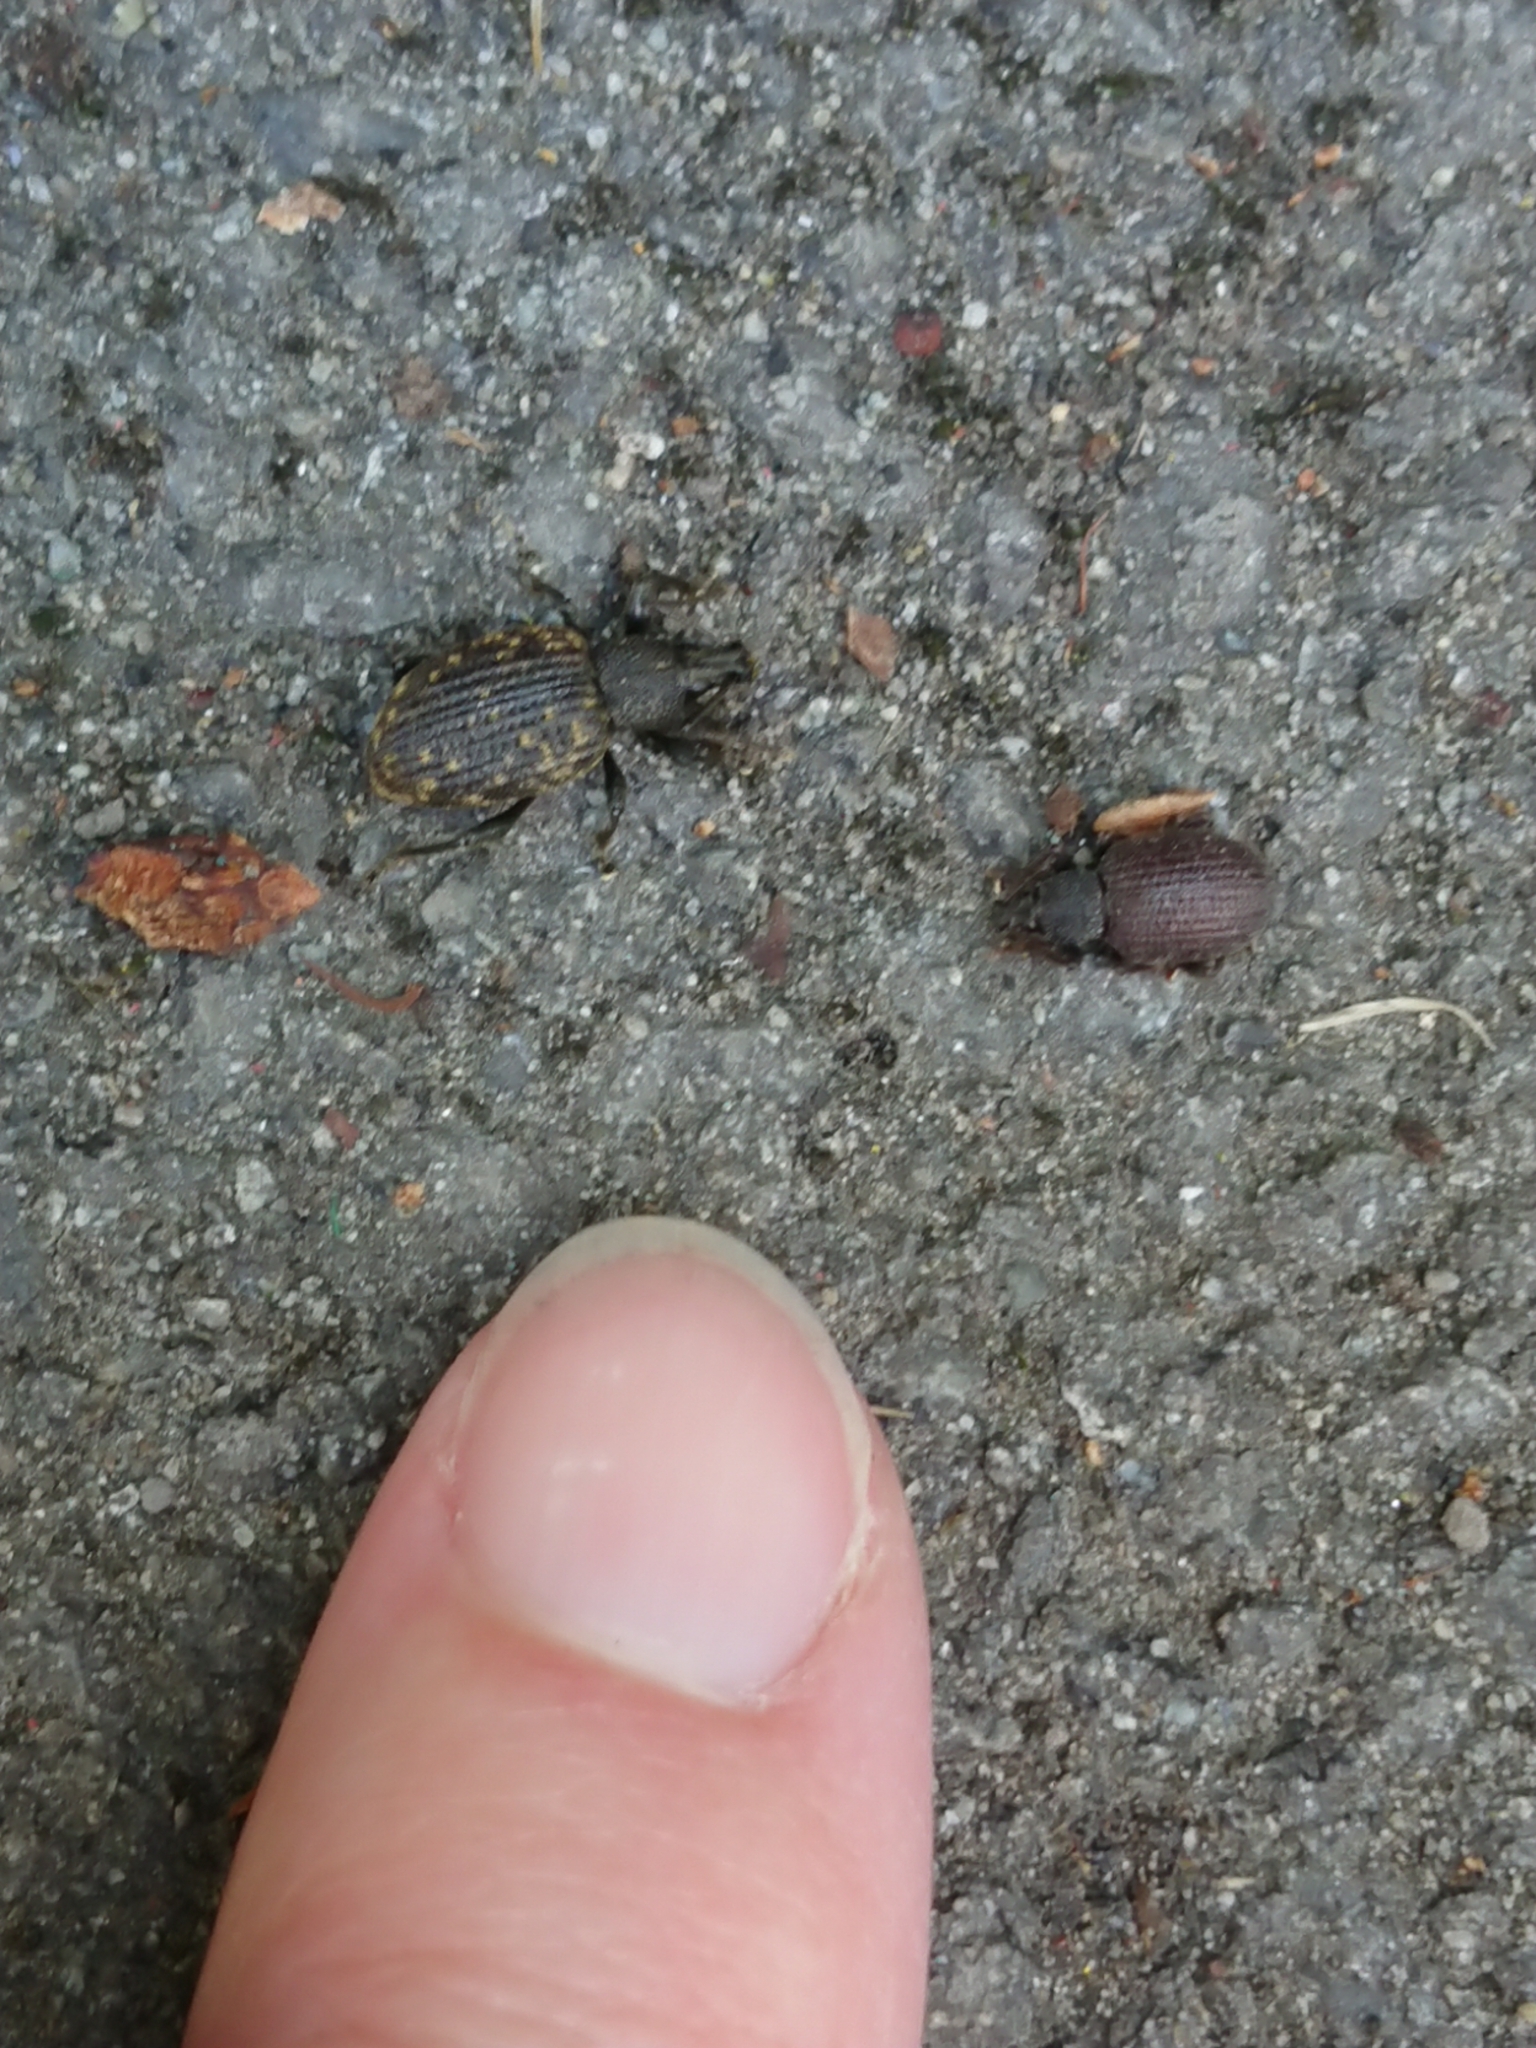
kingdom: Animalia
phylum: Arthropoda
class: Insecta
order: Coleoptera
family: Curculionidae
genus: Otiorhynchus
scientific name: Otiorhynchus rugosostriatus
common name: Weevil
